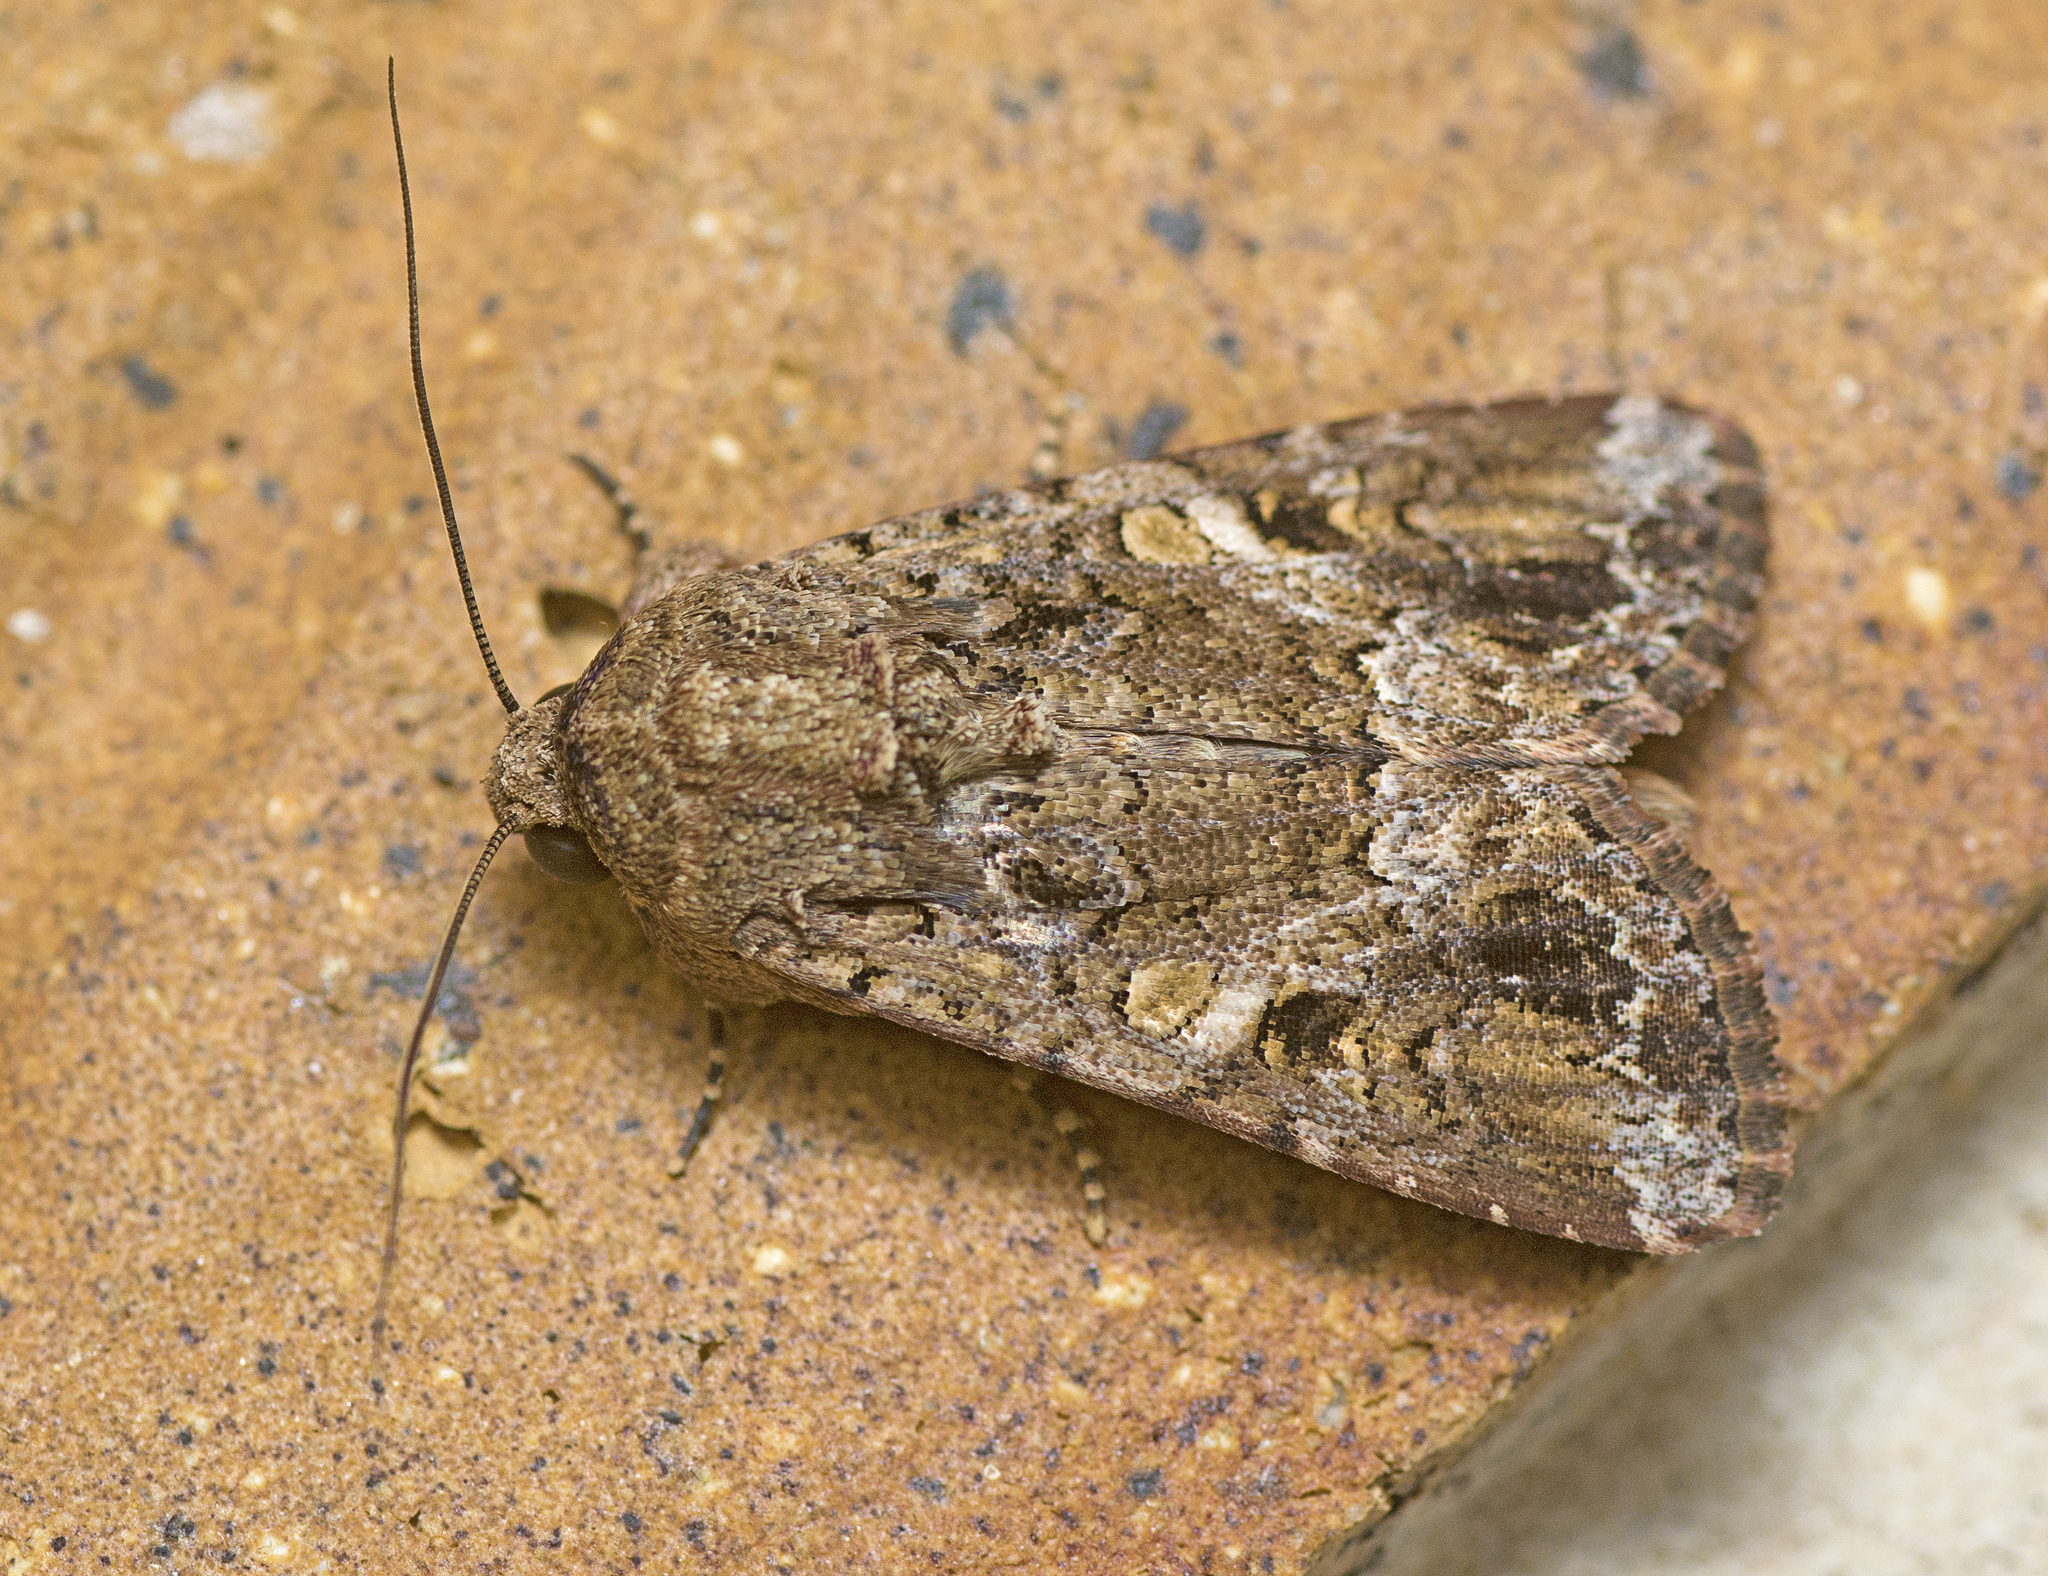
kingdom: Animalia
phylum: Arthropoda
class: Insecta
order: Lepidoptera
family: Noctuidae
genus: Spodoptera
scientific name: Spodoptera mauritia
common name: Lawn armyworm
